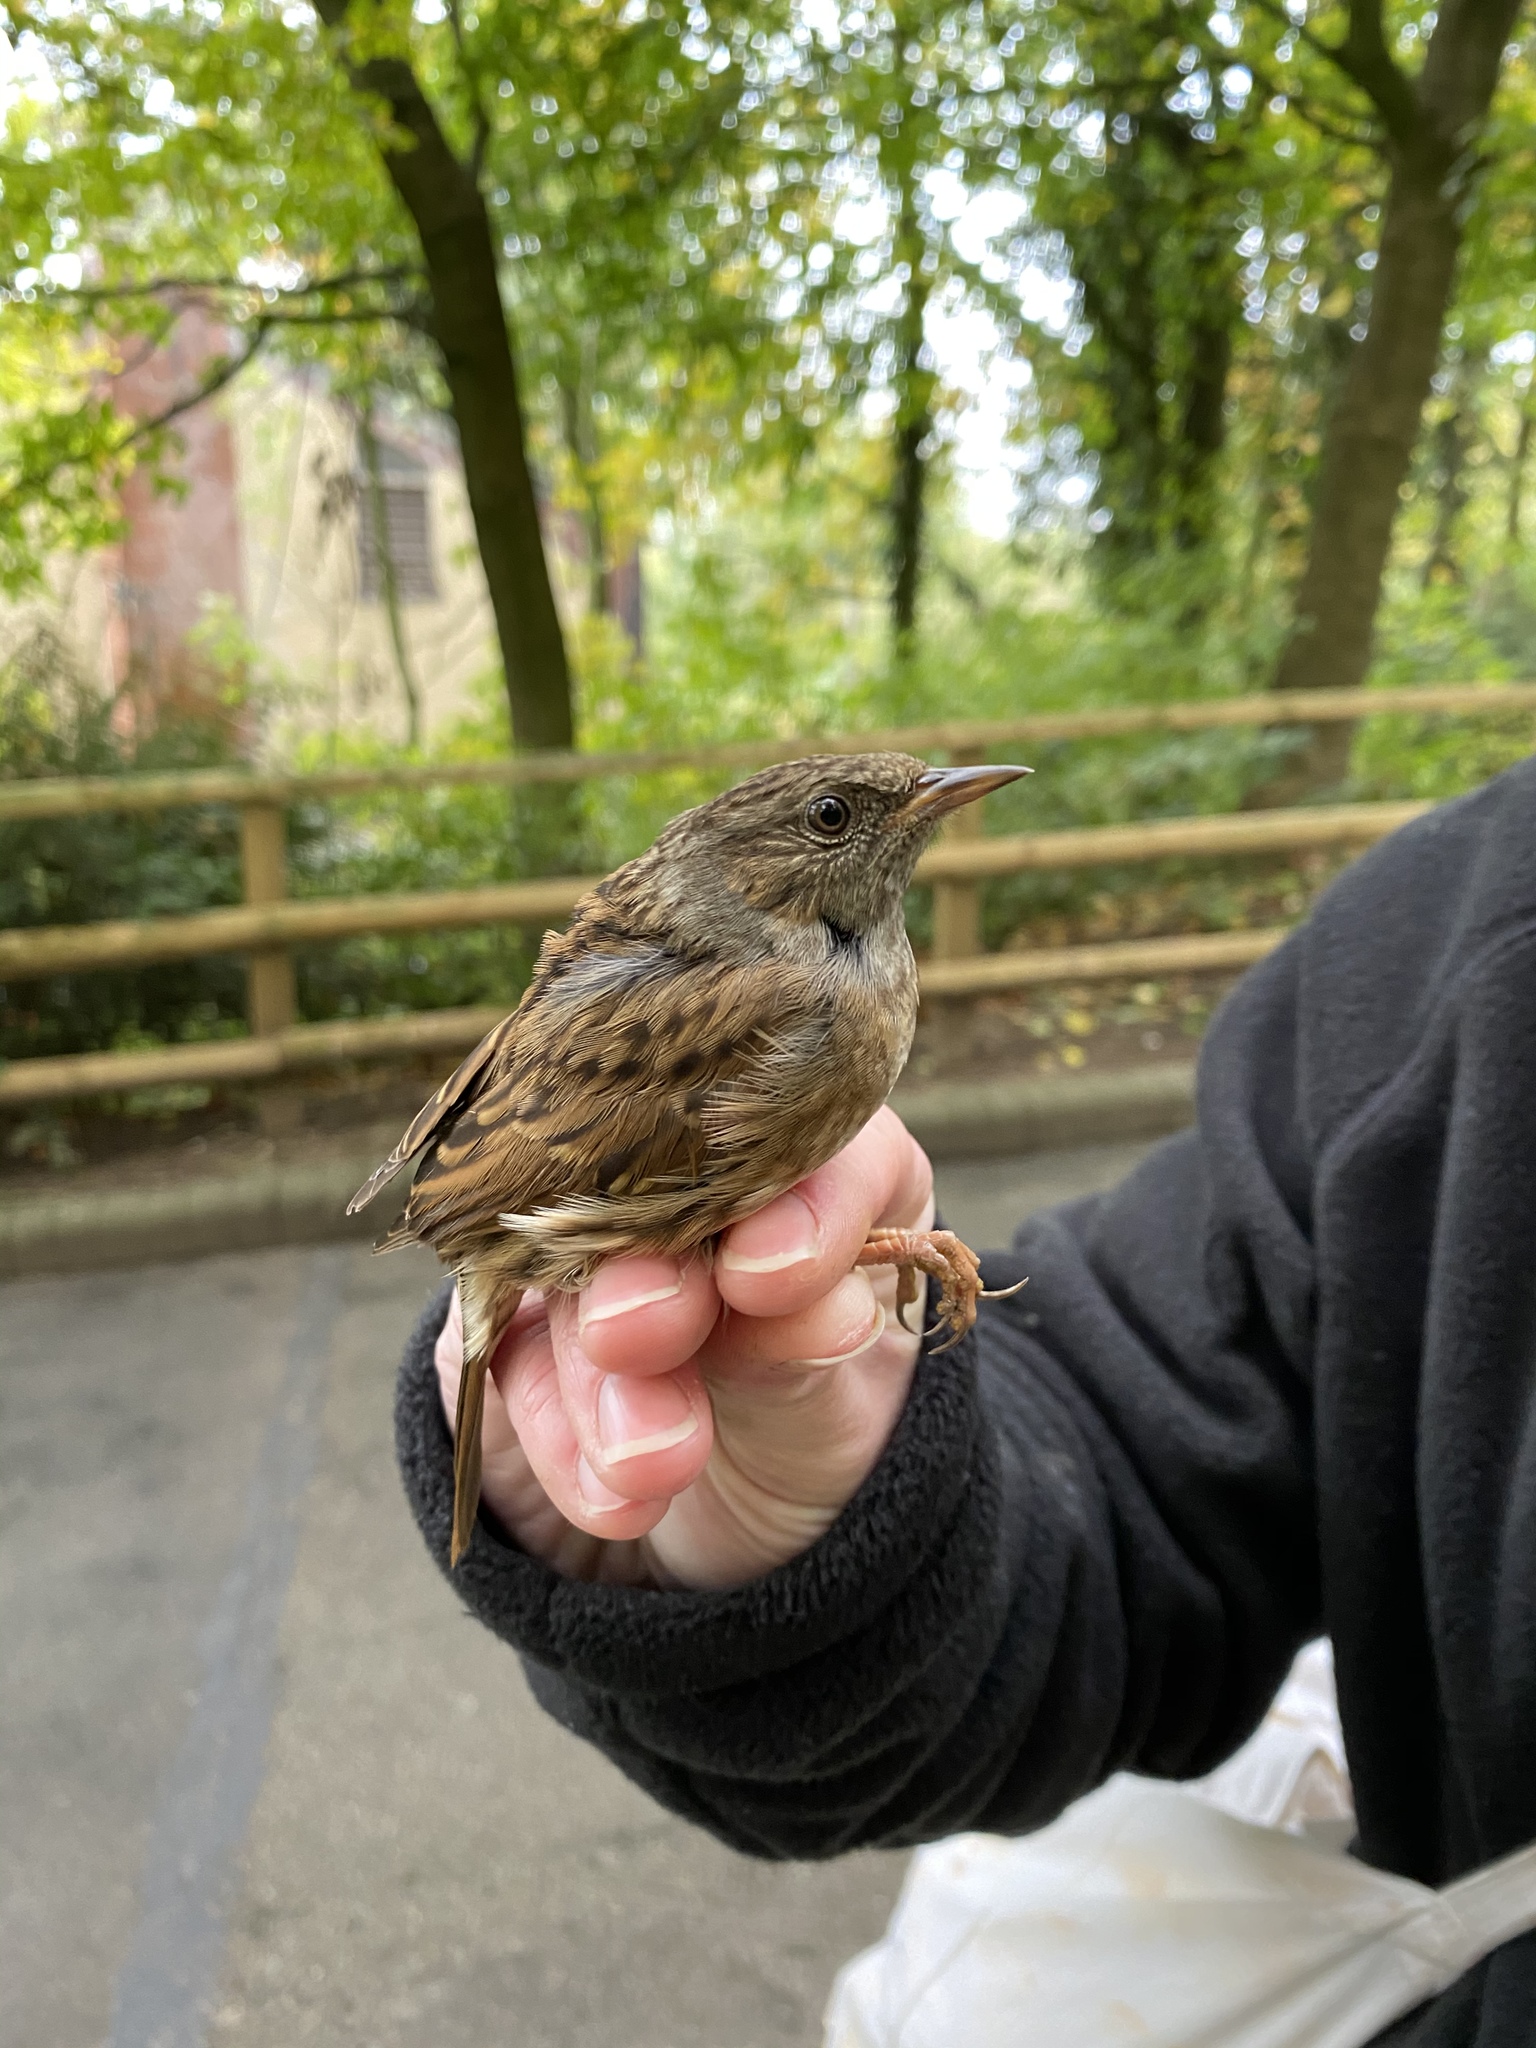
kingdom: Animalia
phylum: Chordata
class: Aves
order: Passeriformes
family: Prunellidae
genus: Prunella
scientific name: Prunella modularis
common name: Dunnock
